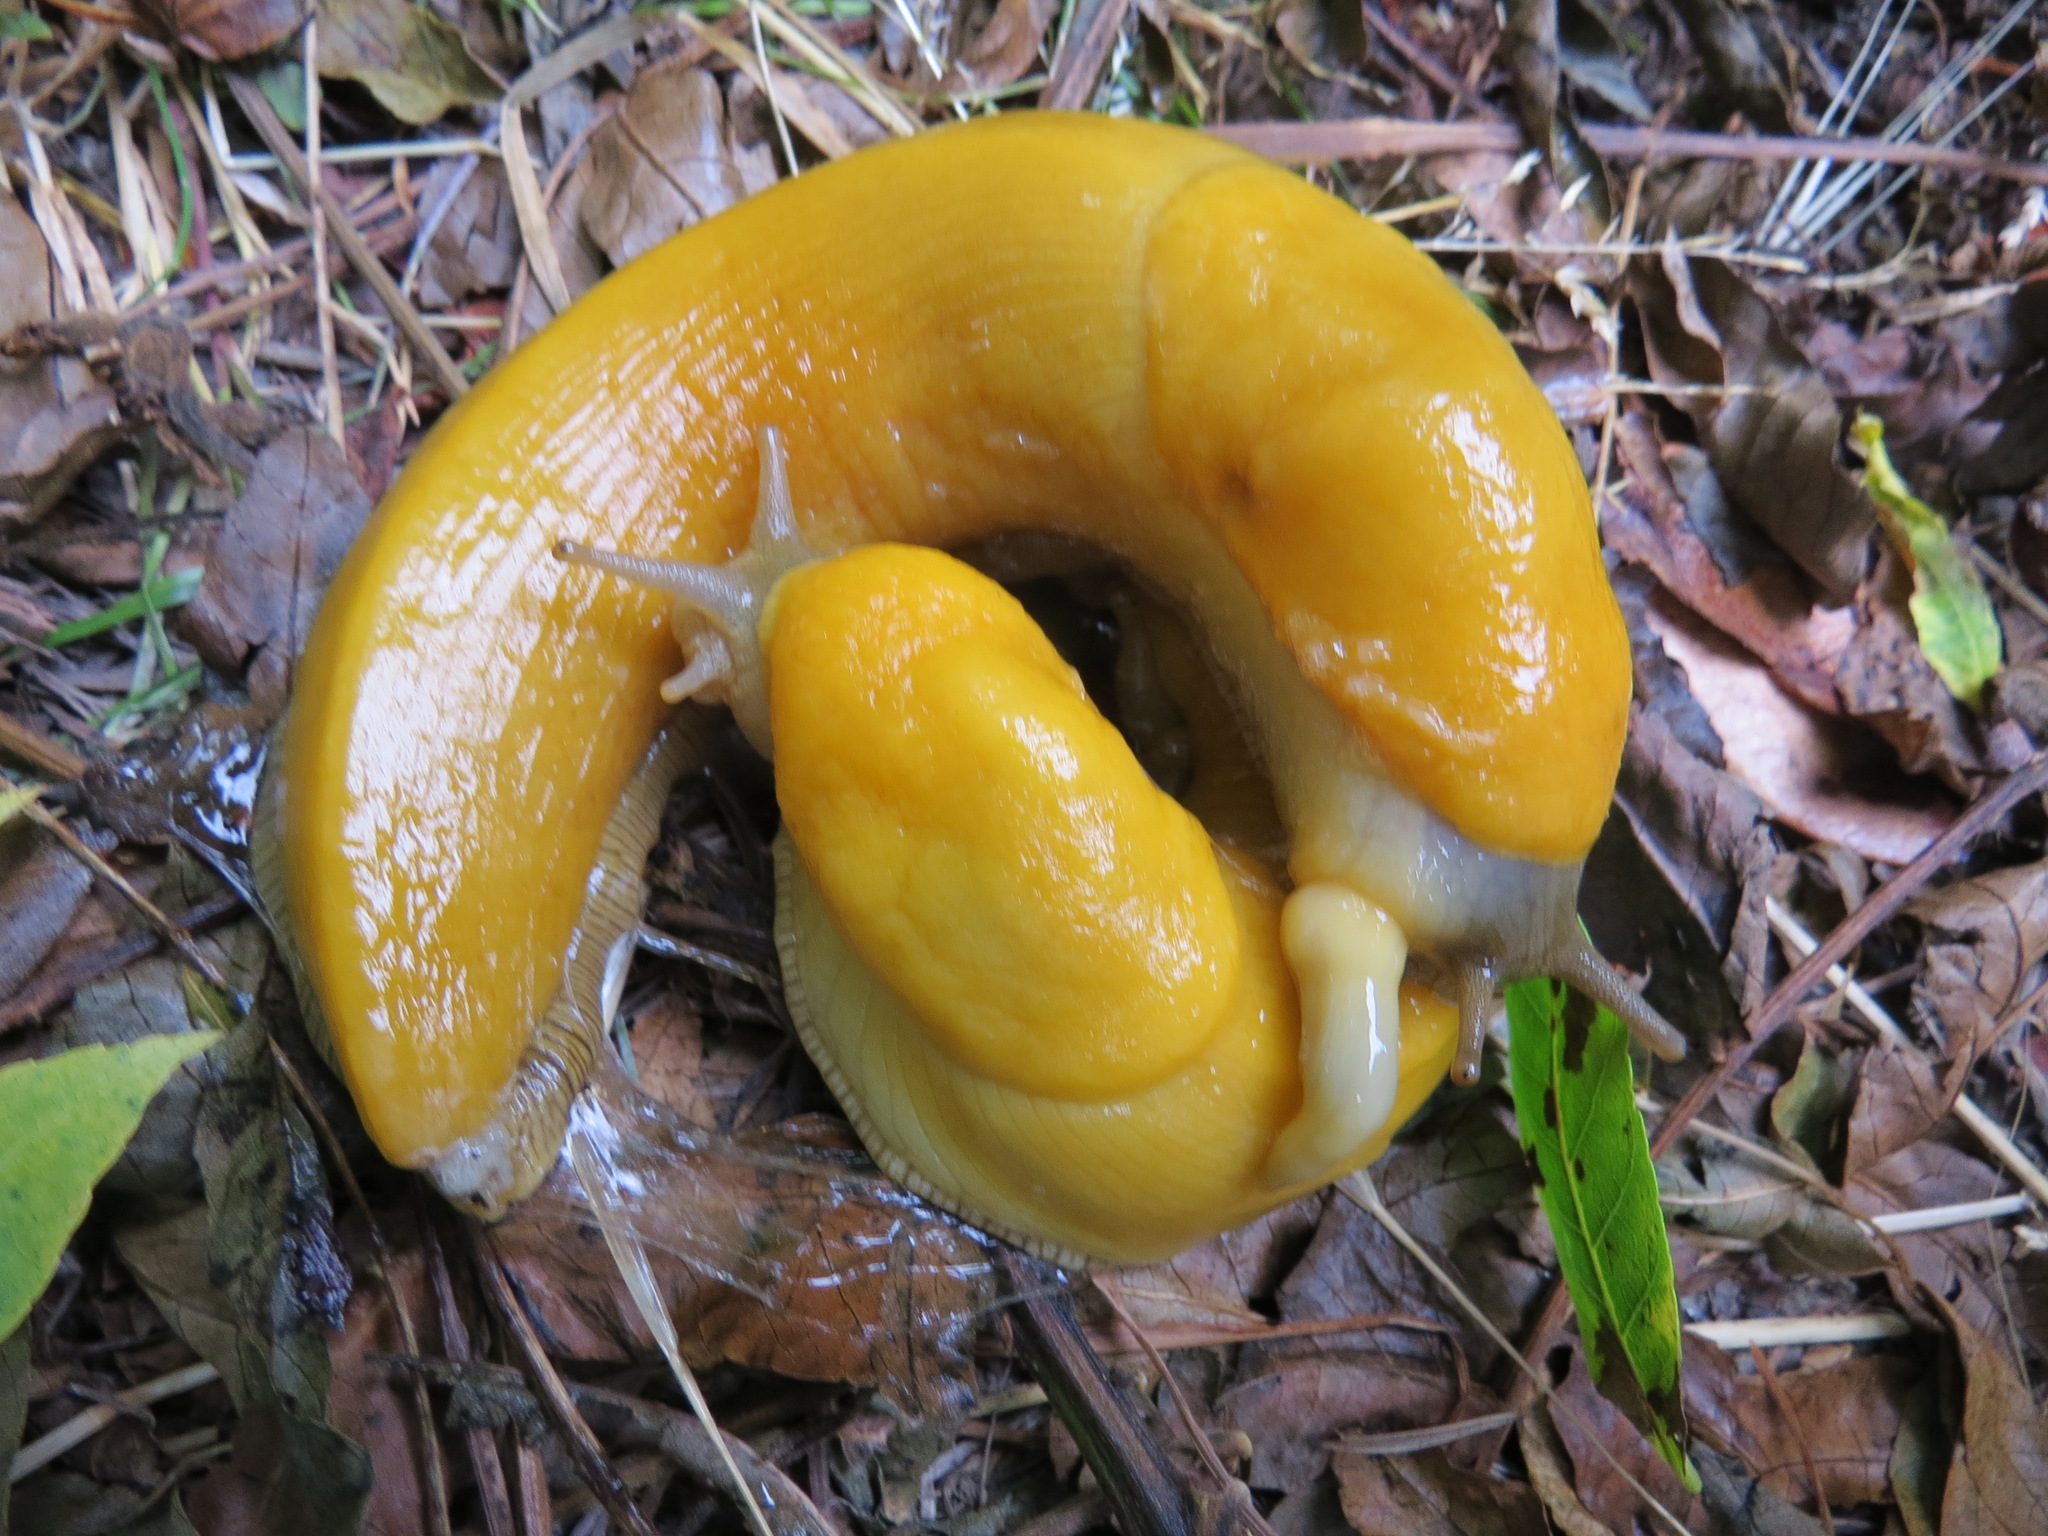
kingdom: Animalia
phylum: Mollusca
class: Gastropoda
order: Stylommatophora
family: Ariolimacidae
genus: Ariolimax
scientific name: Ariolimax californicus
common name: California banana slug
